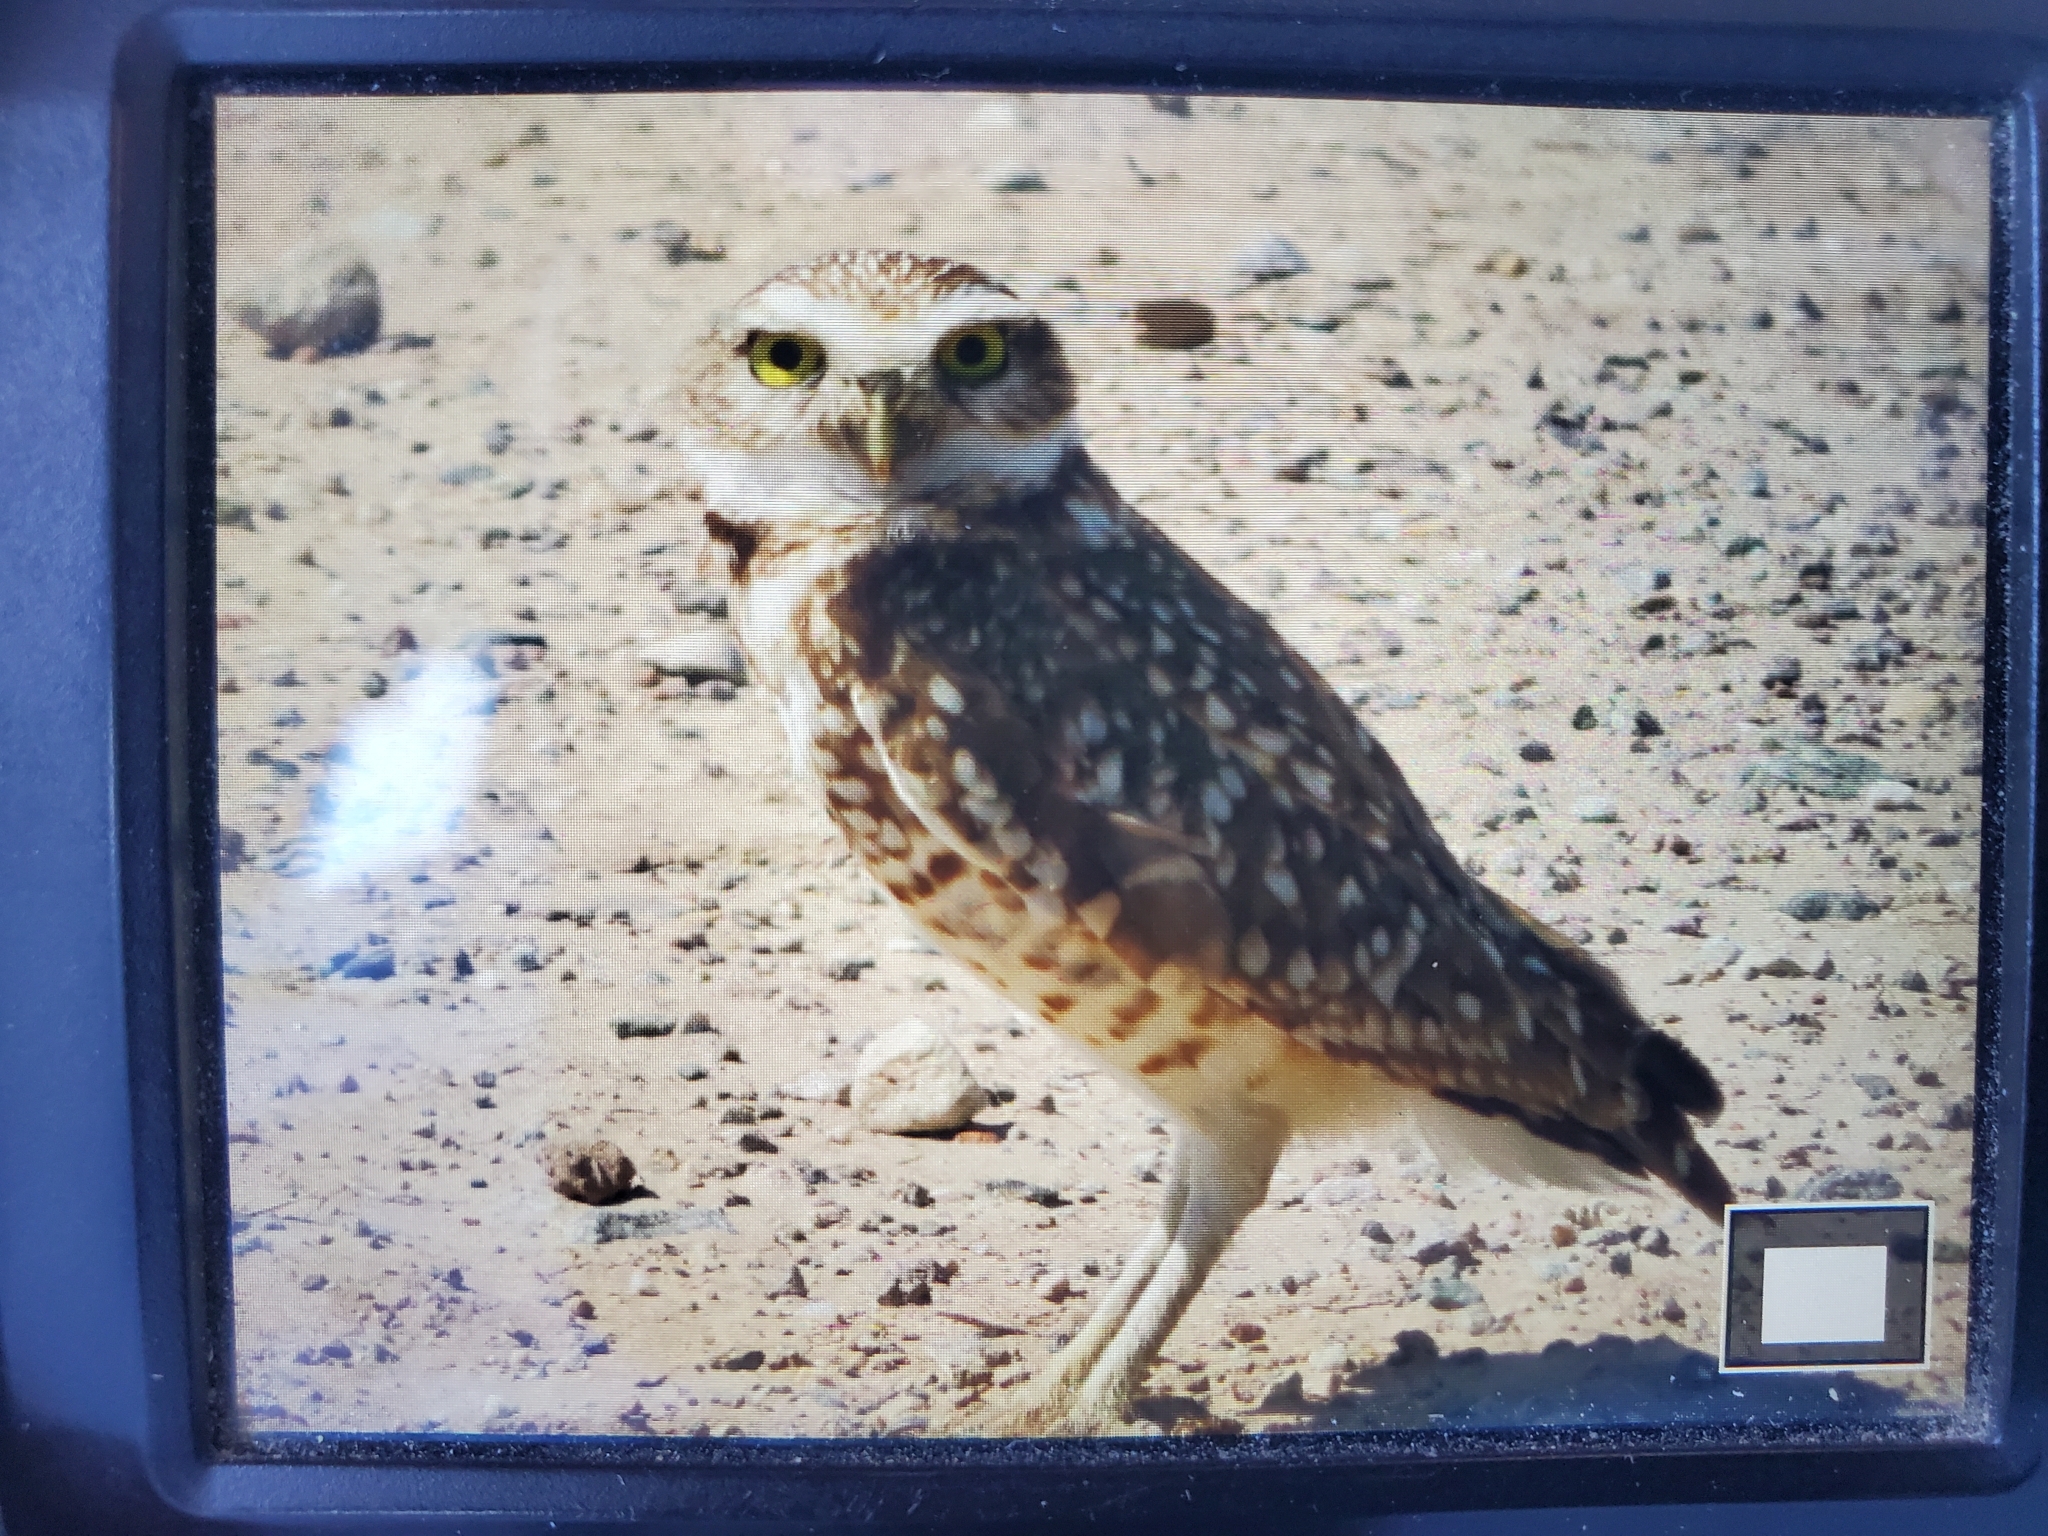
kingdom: Animalia
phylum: Chordata
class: Aves
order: Strigiformes
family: Strigidae
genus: Athene
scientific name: Athene cunicularia
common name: Burrowing owl
